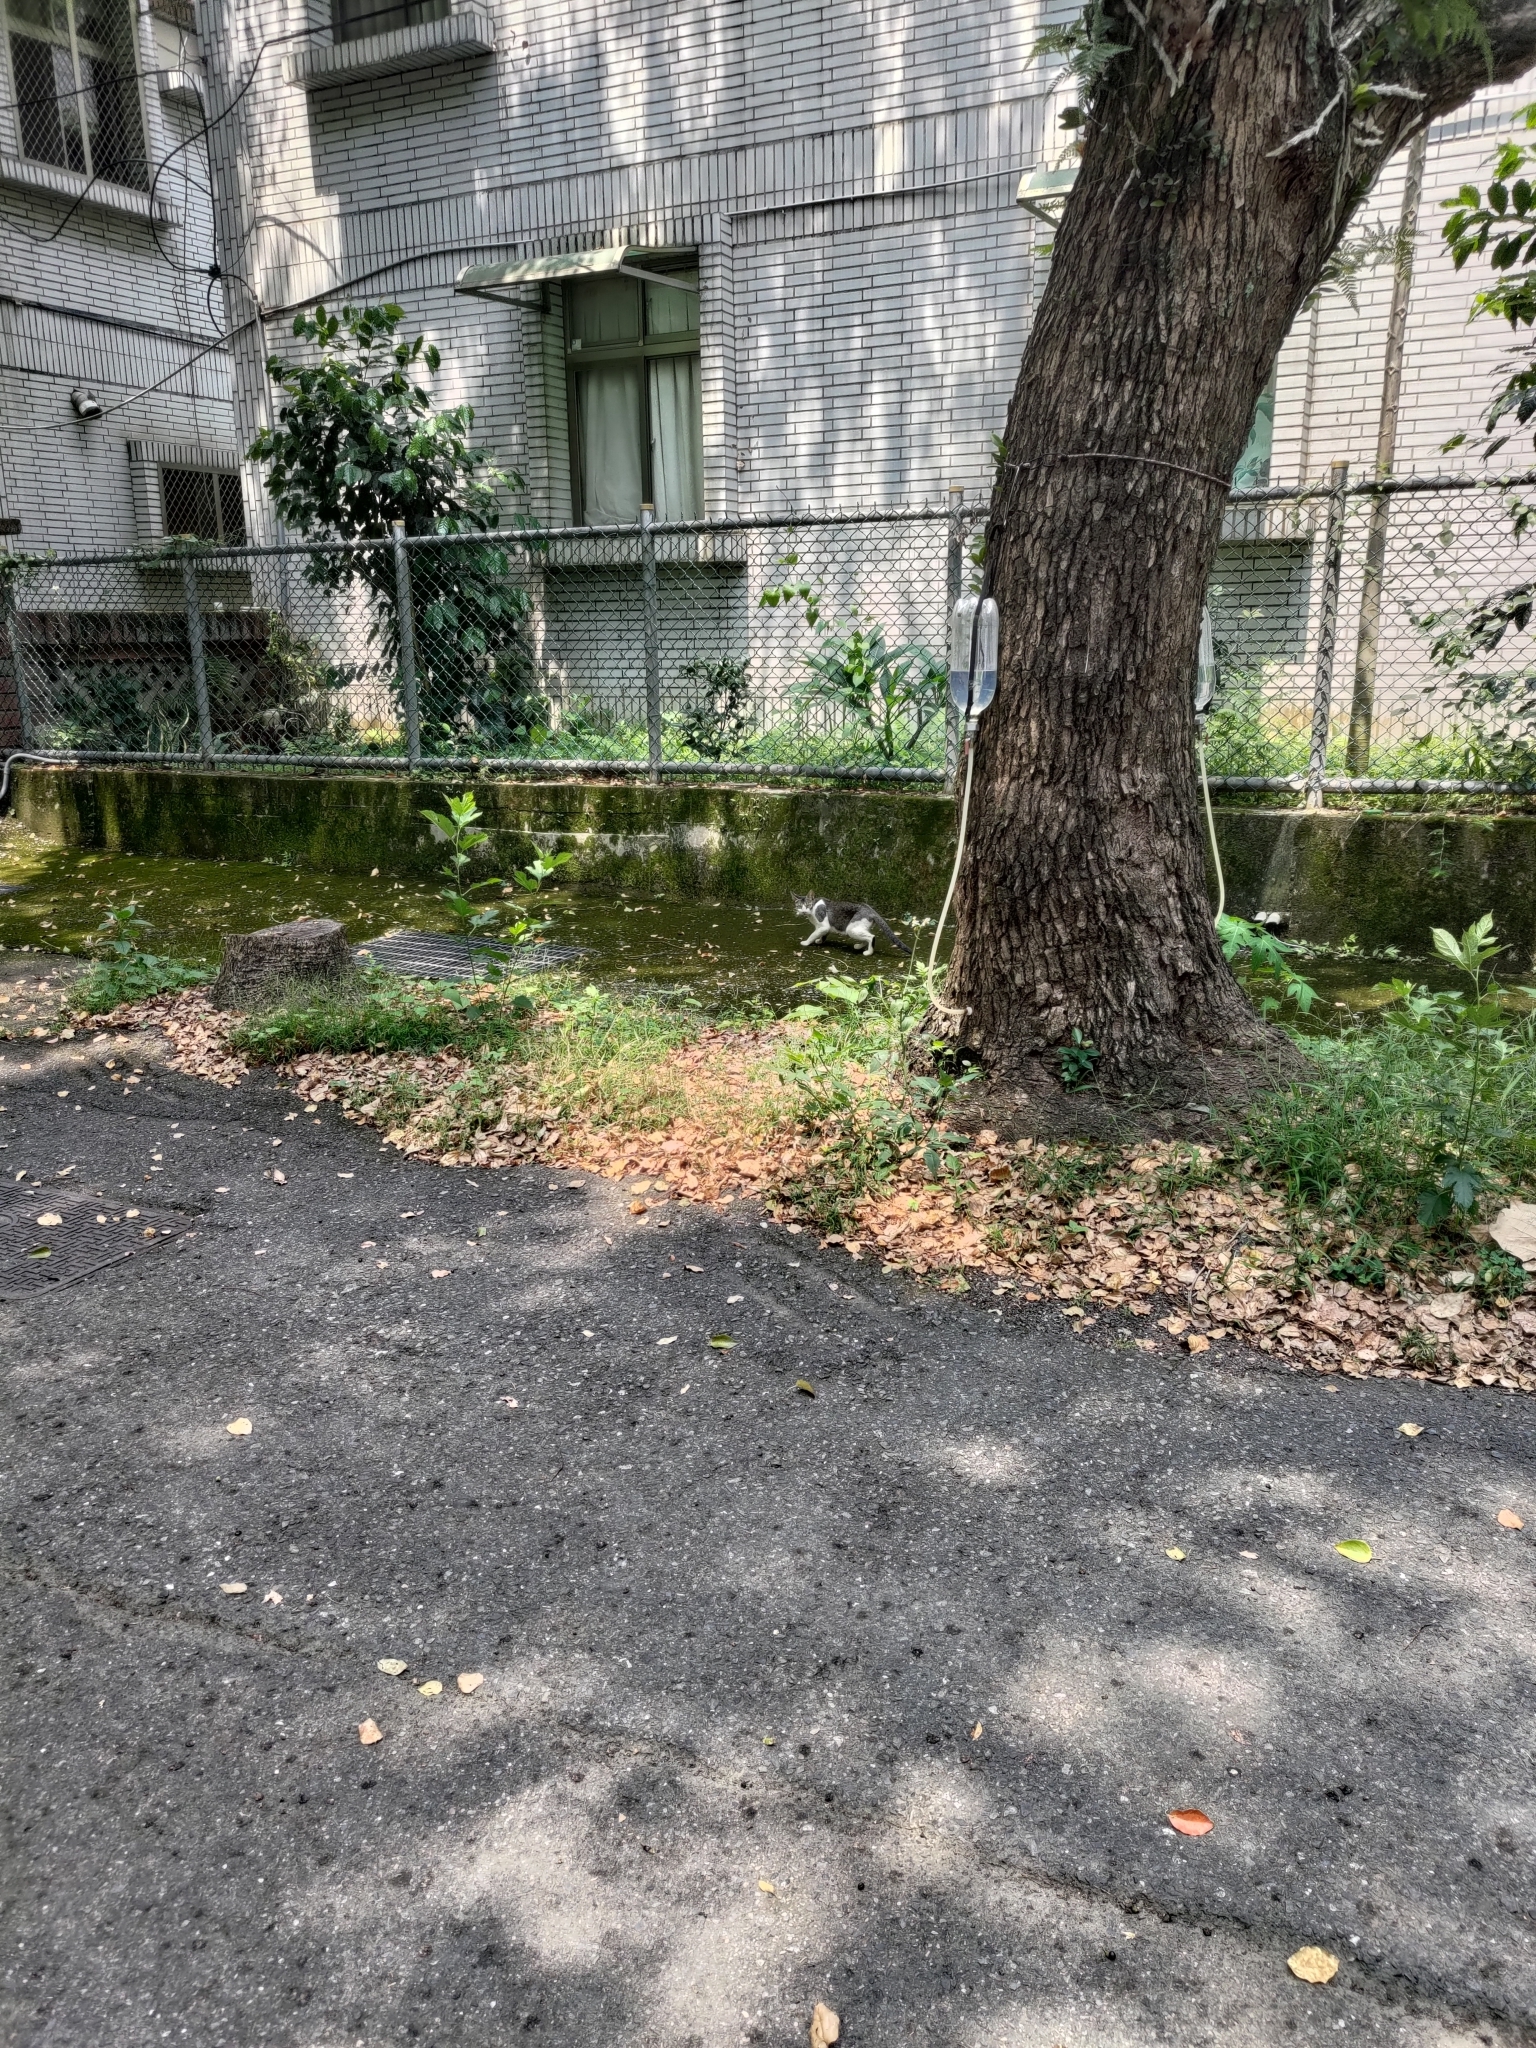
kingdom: Animalia
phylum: Chordata
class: Mammalia
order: Carnivora
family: Felidae
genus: Felis
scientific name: Felis catus
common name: Domestic cat
